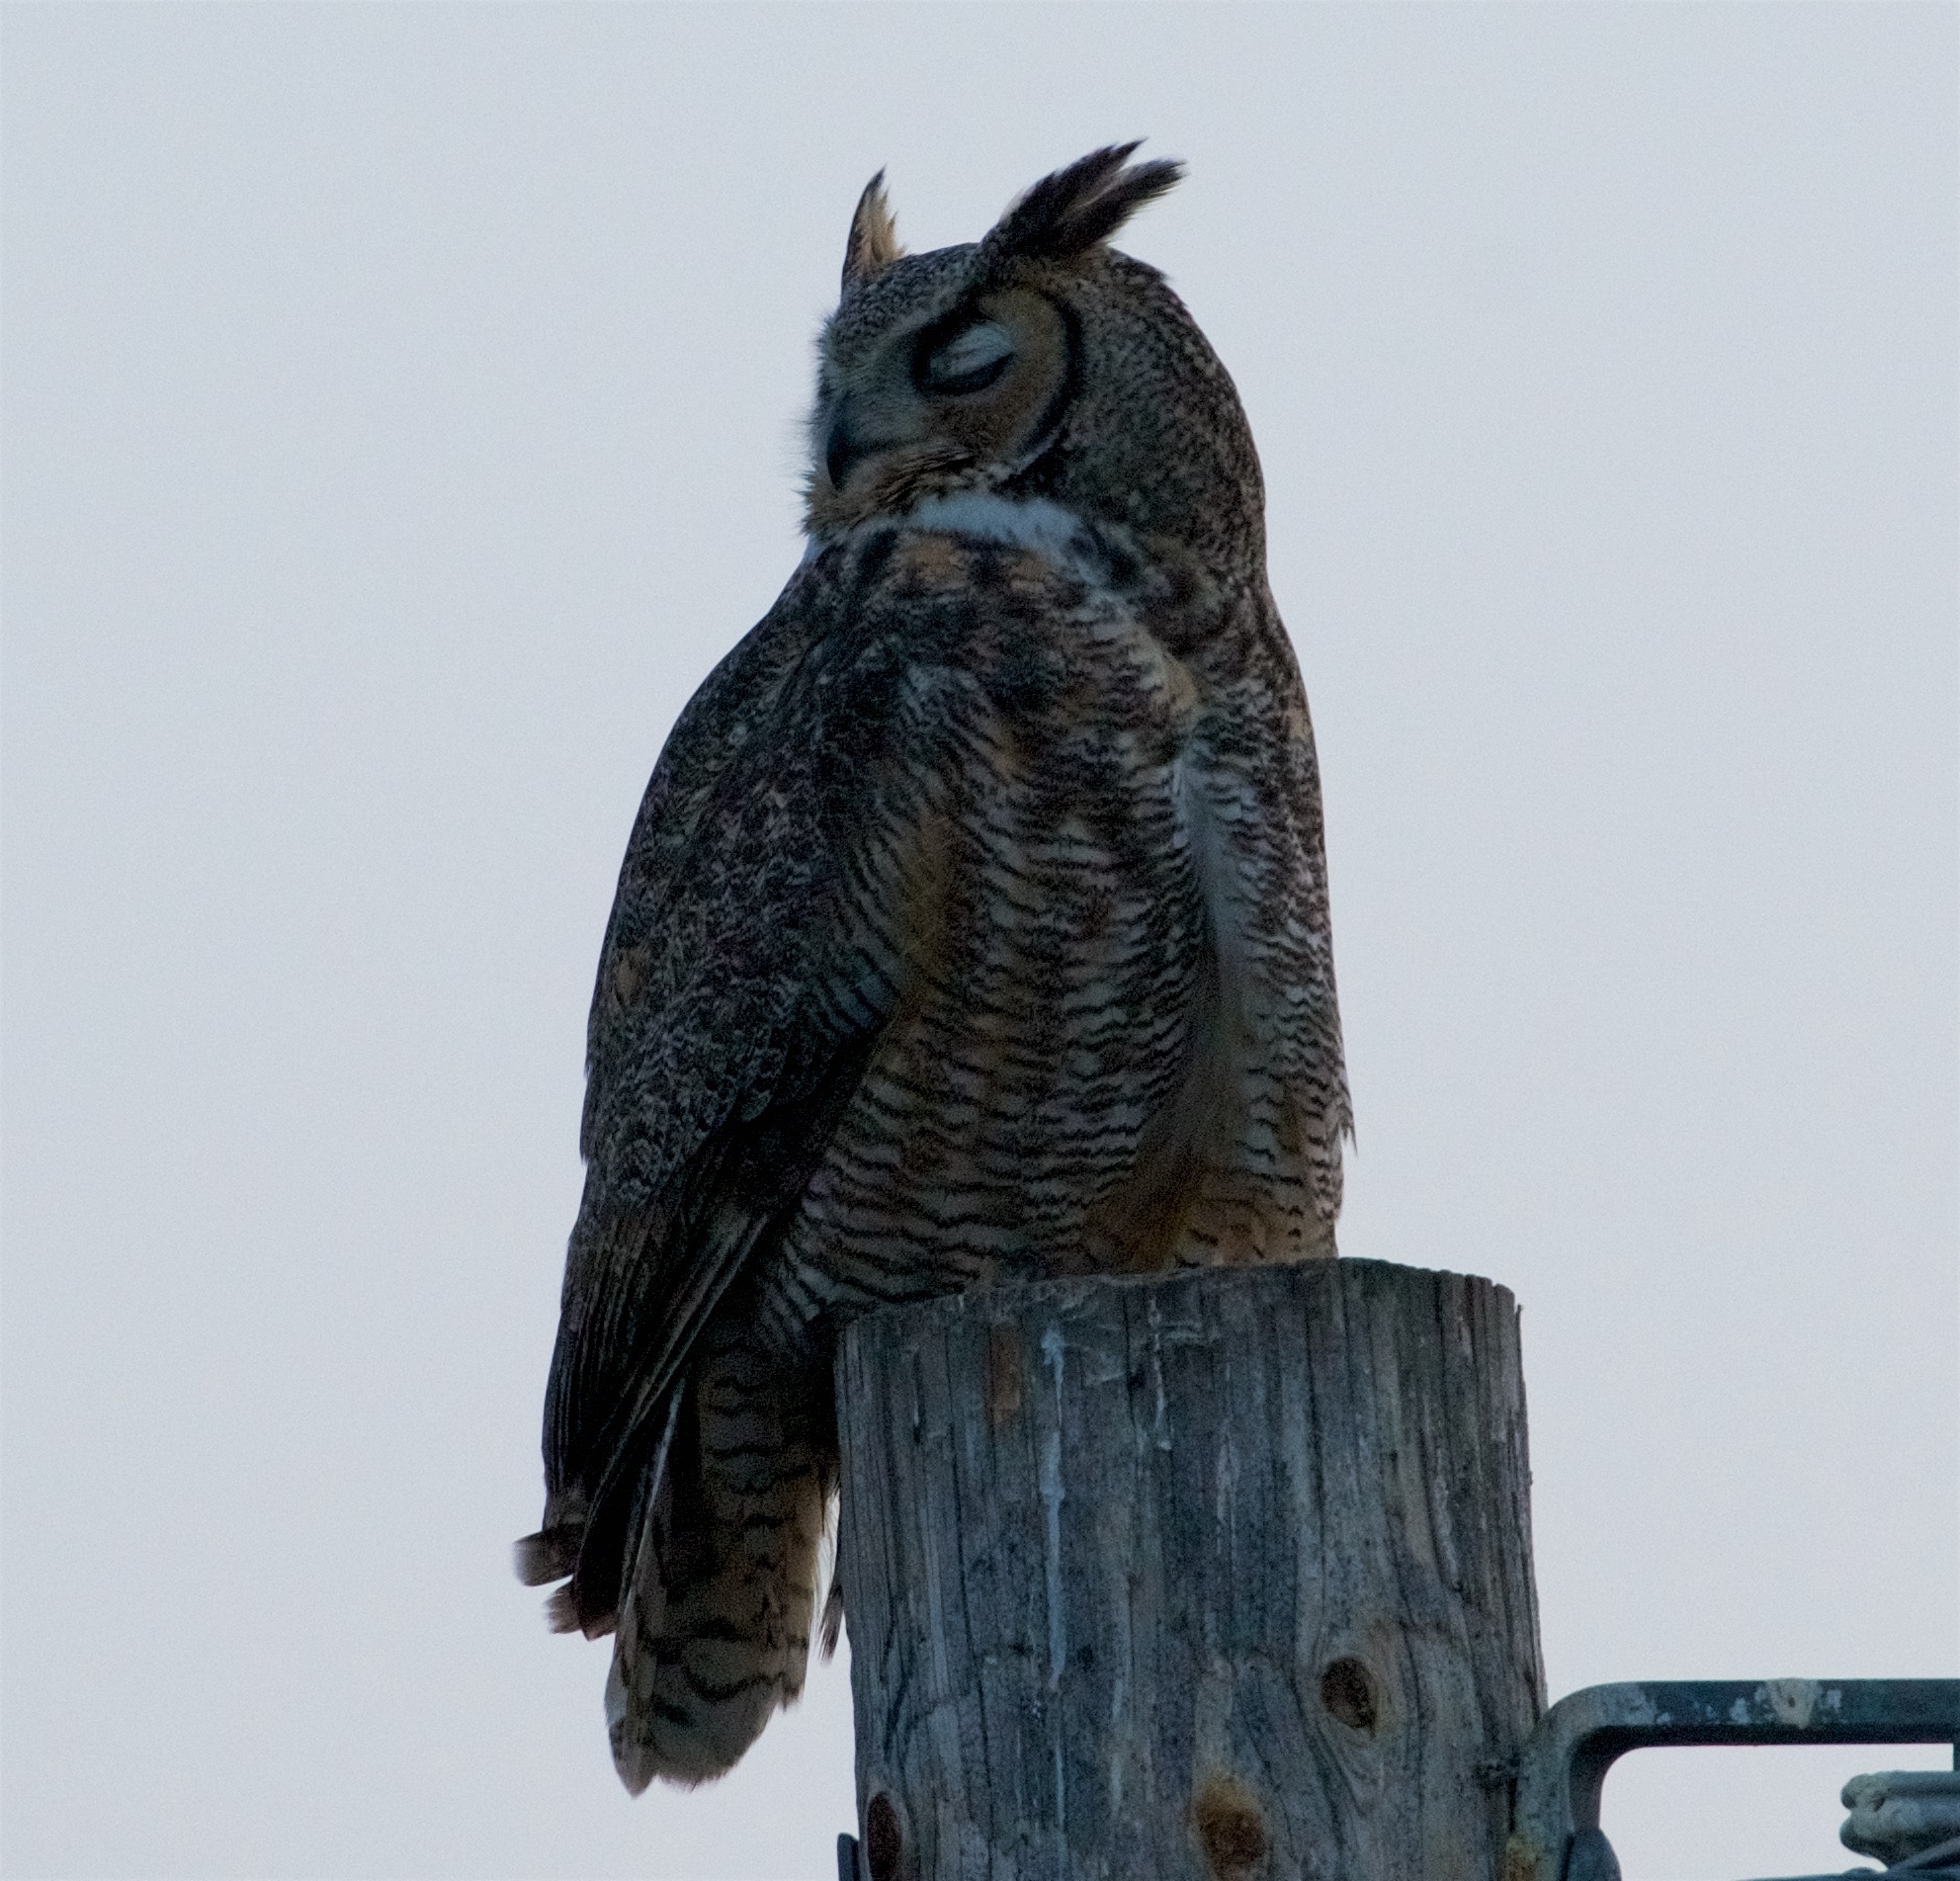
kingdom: Animalia
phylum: Chordata
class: Aves
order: Strigiformes
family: Strigidae
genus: Bubo
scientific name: Bubo virginianus
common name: Great horned owl
